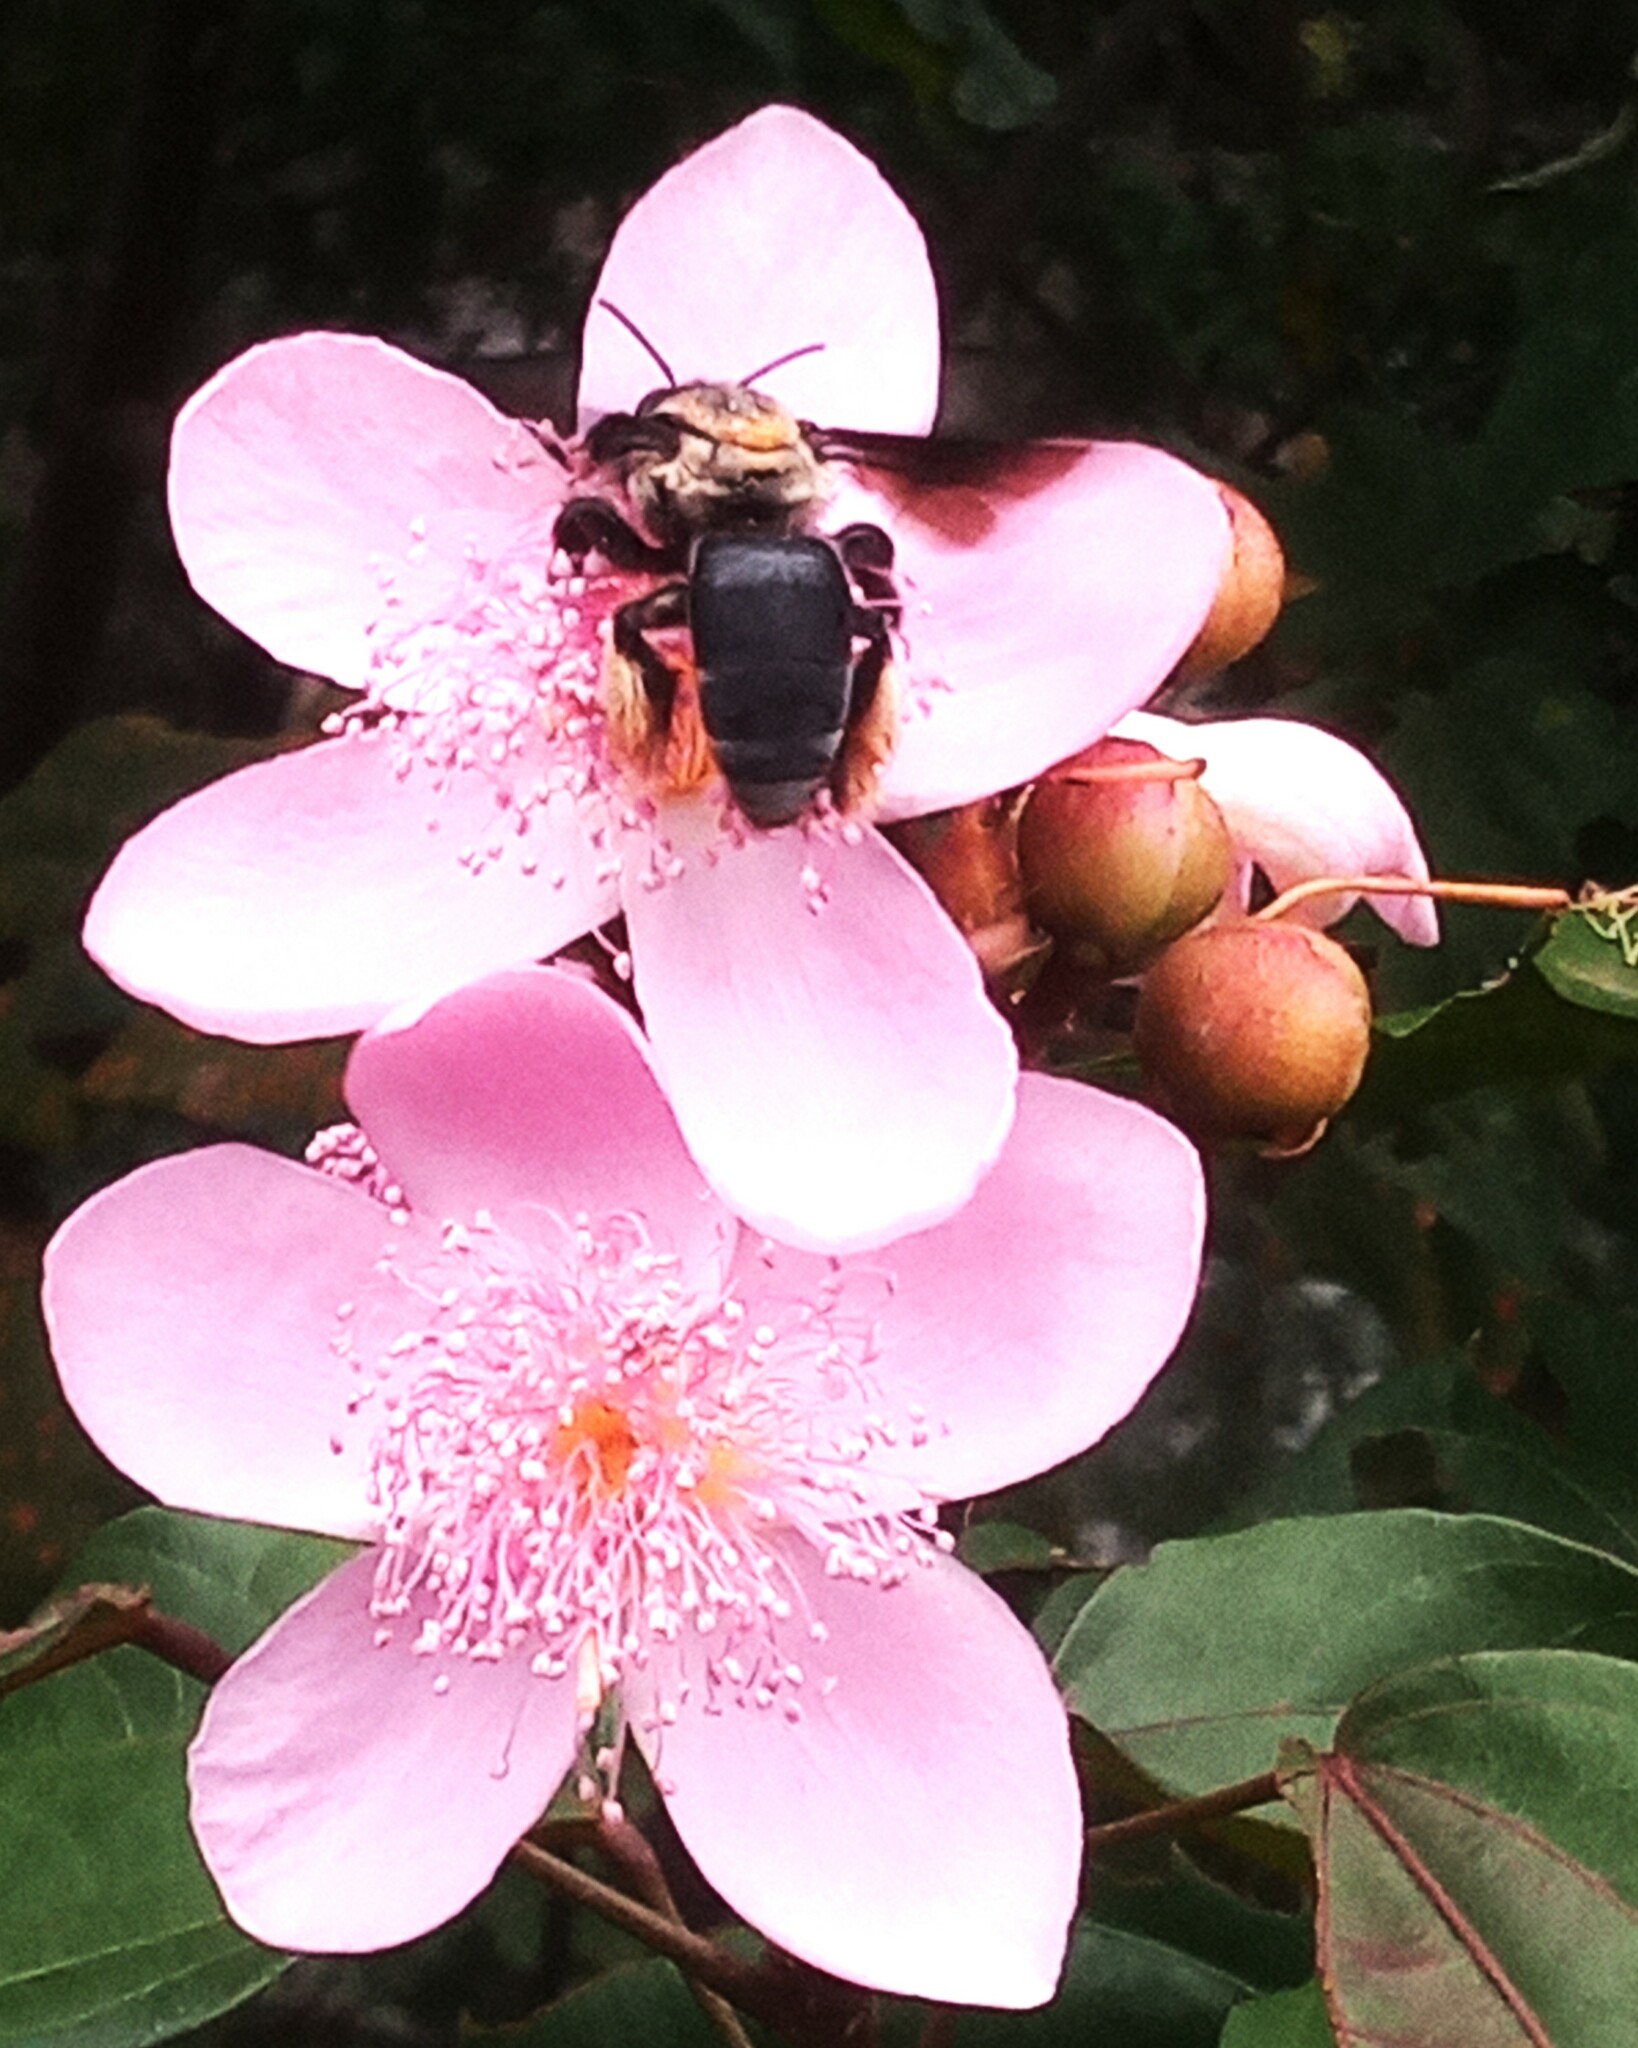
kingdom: Animalia
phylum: Arthropoda
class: Insecta
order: Hymenoptera
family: Apidae
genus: Epicharis
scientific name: Epicharis flava
